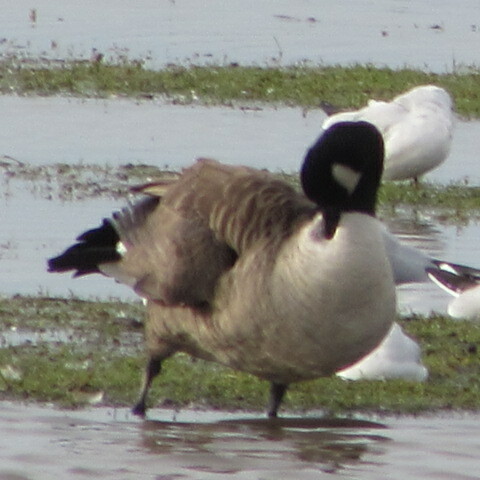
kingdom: Animalia
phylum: Chordata
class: Aves
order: Anseriformes
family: Anatidae
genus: Branta
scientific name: Branta canadensis
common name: Canada goose
